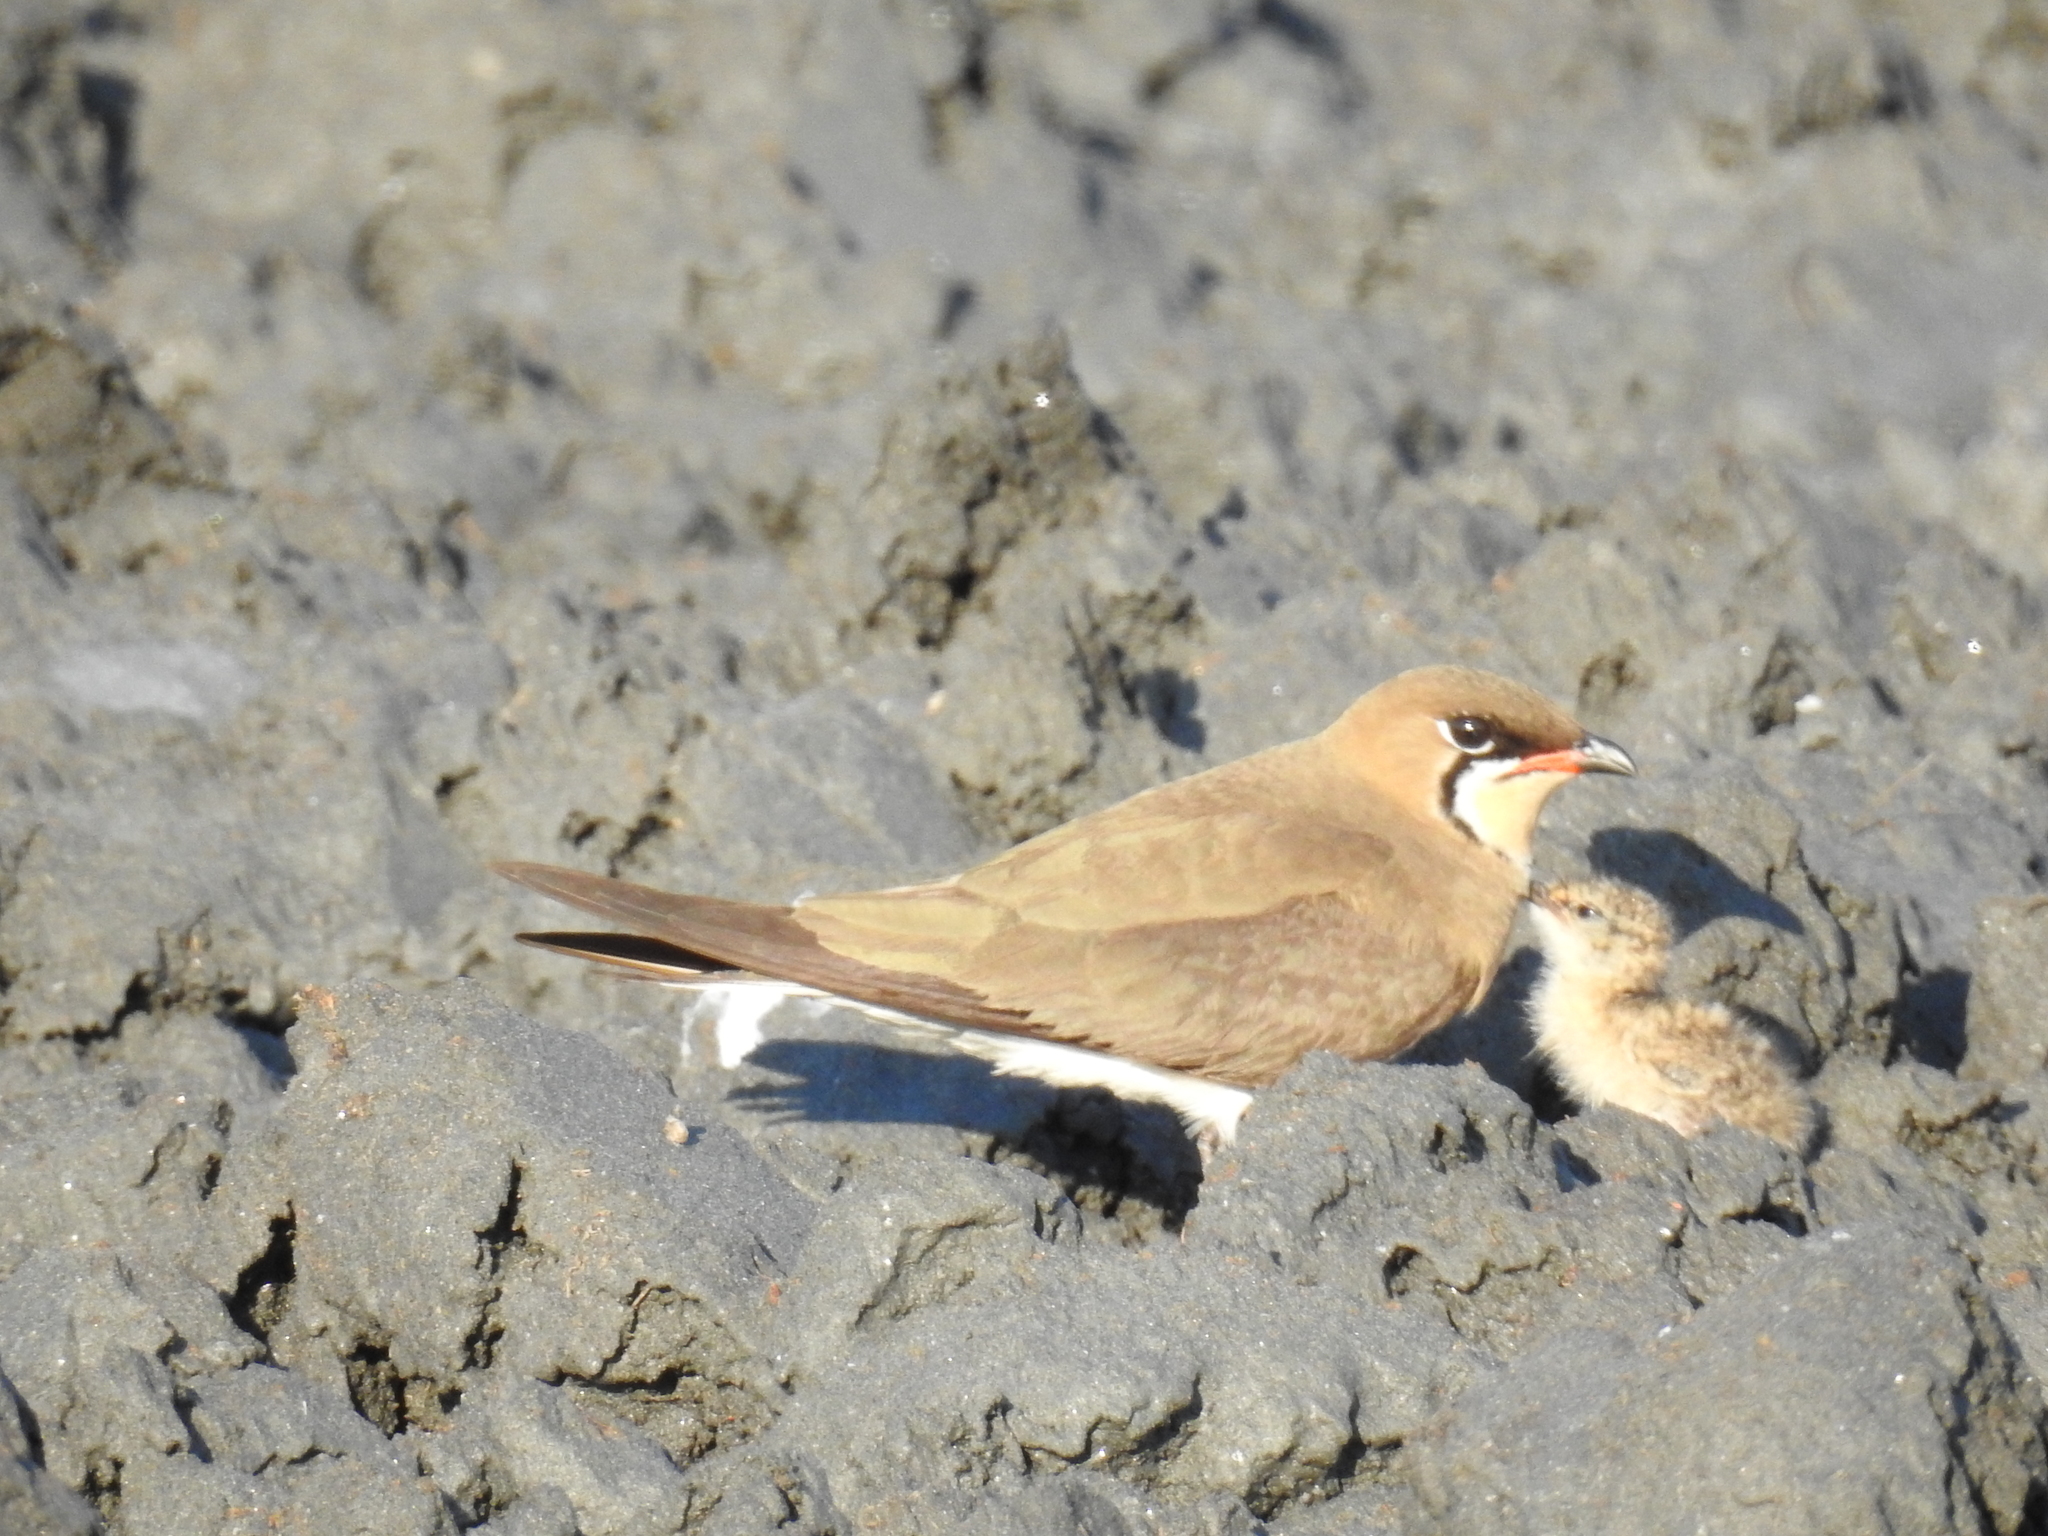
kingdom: Animalia
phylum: Chordata
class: Aves
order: Charadriiformes
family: Glareolidae
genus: Glareola
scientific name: Glareola maldivarum
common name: Oriental pratincole
